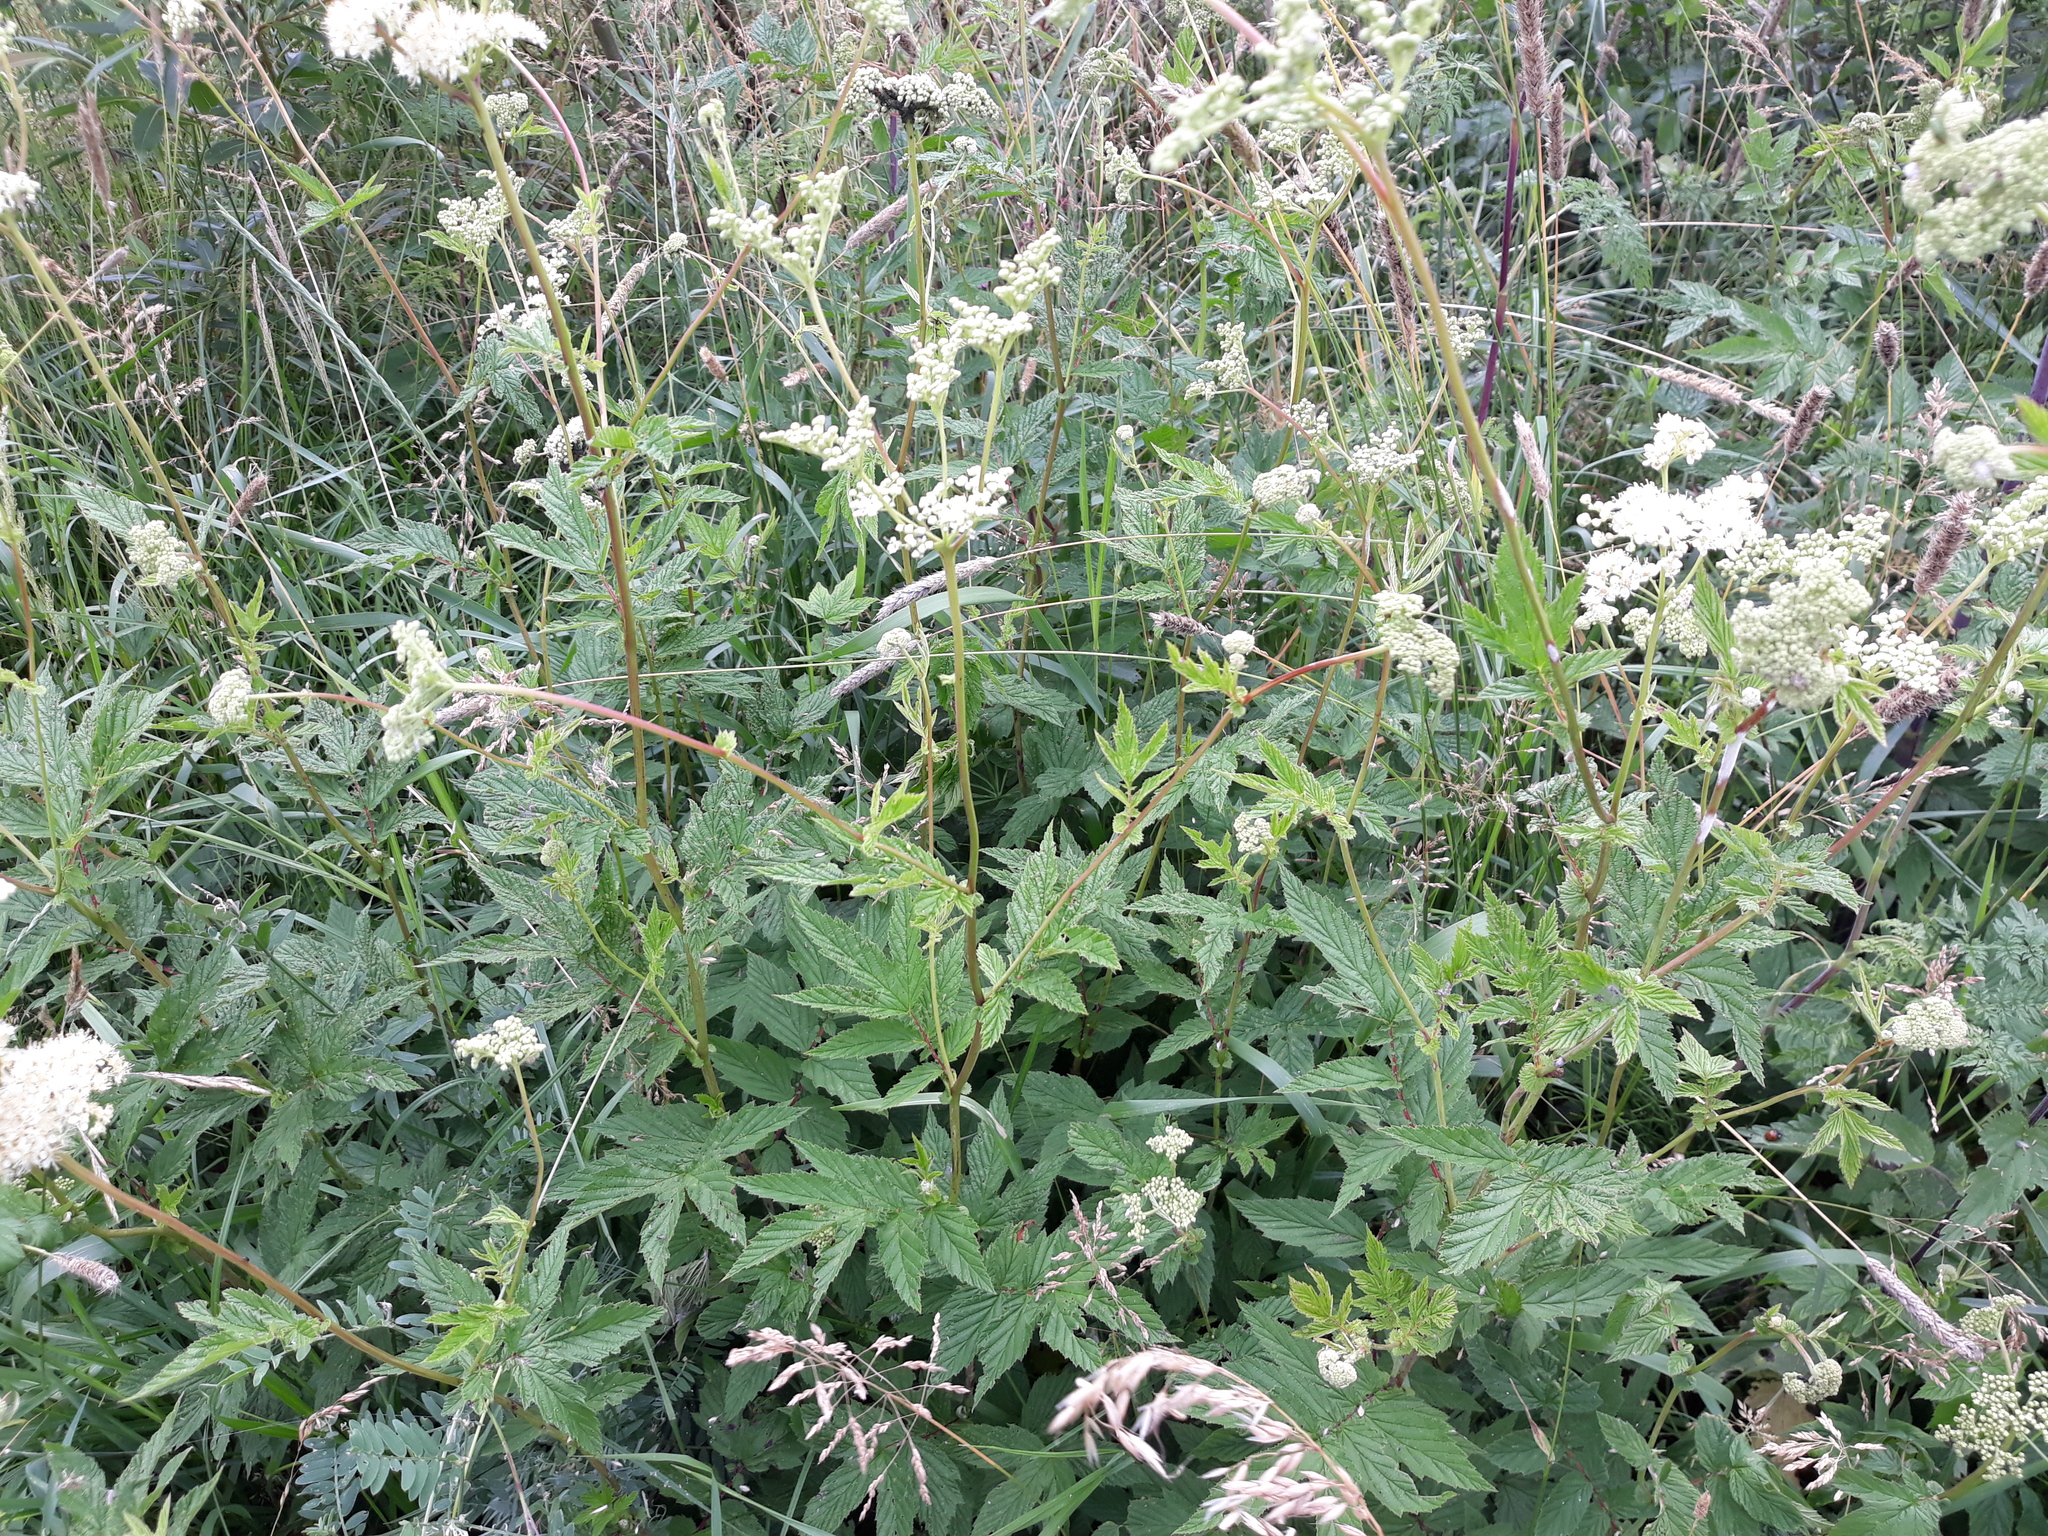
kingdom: Plantae
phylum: Tracheophyta
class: Magnoliopsida
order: Rosales
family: Rosaceae
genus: Filipendula
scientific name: Filipendula ulmaria
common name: Meadowsweet
